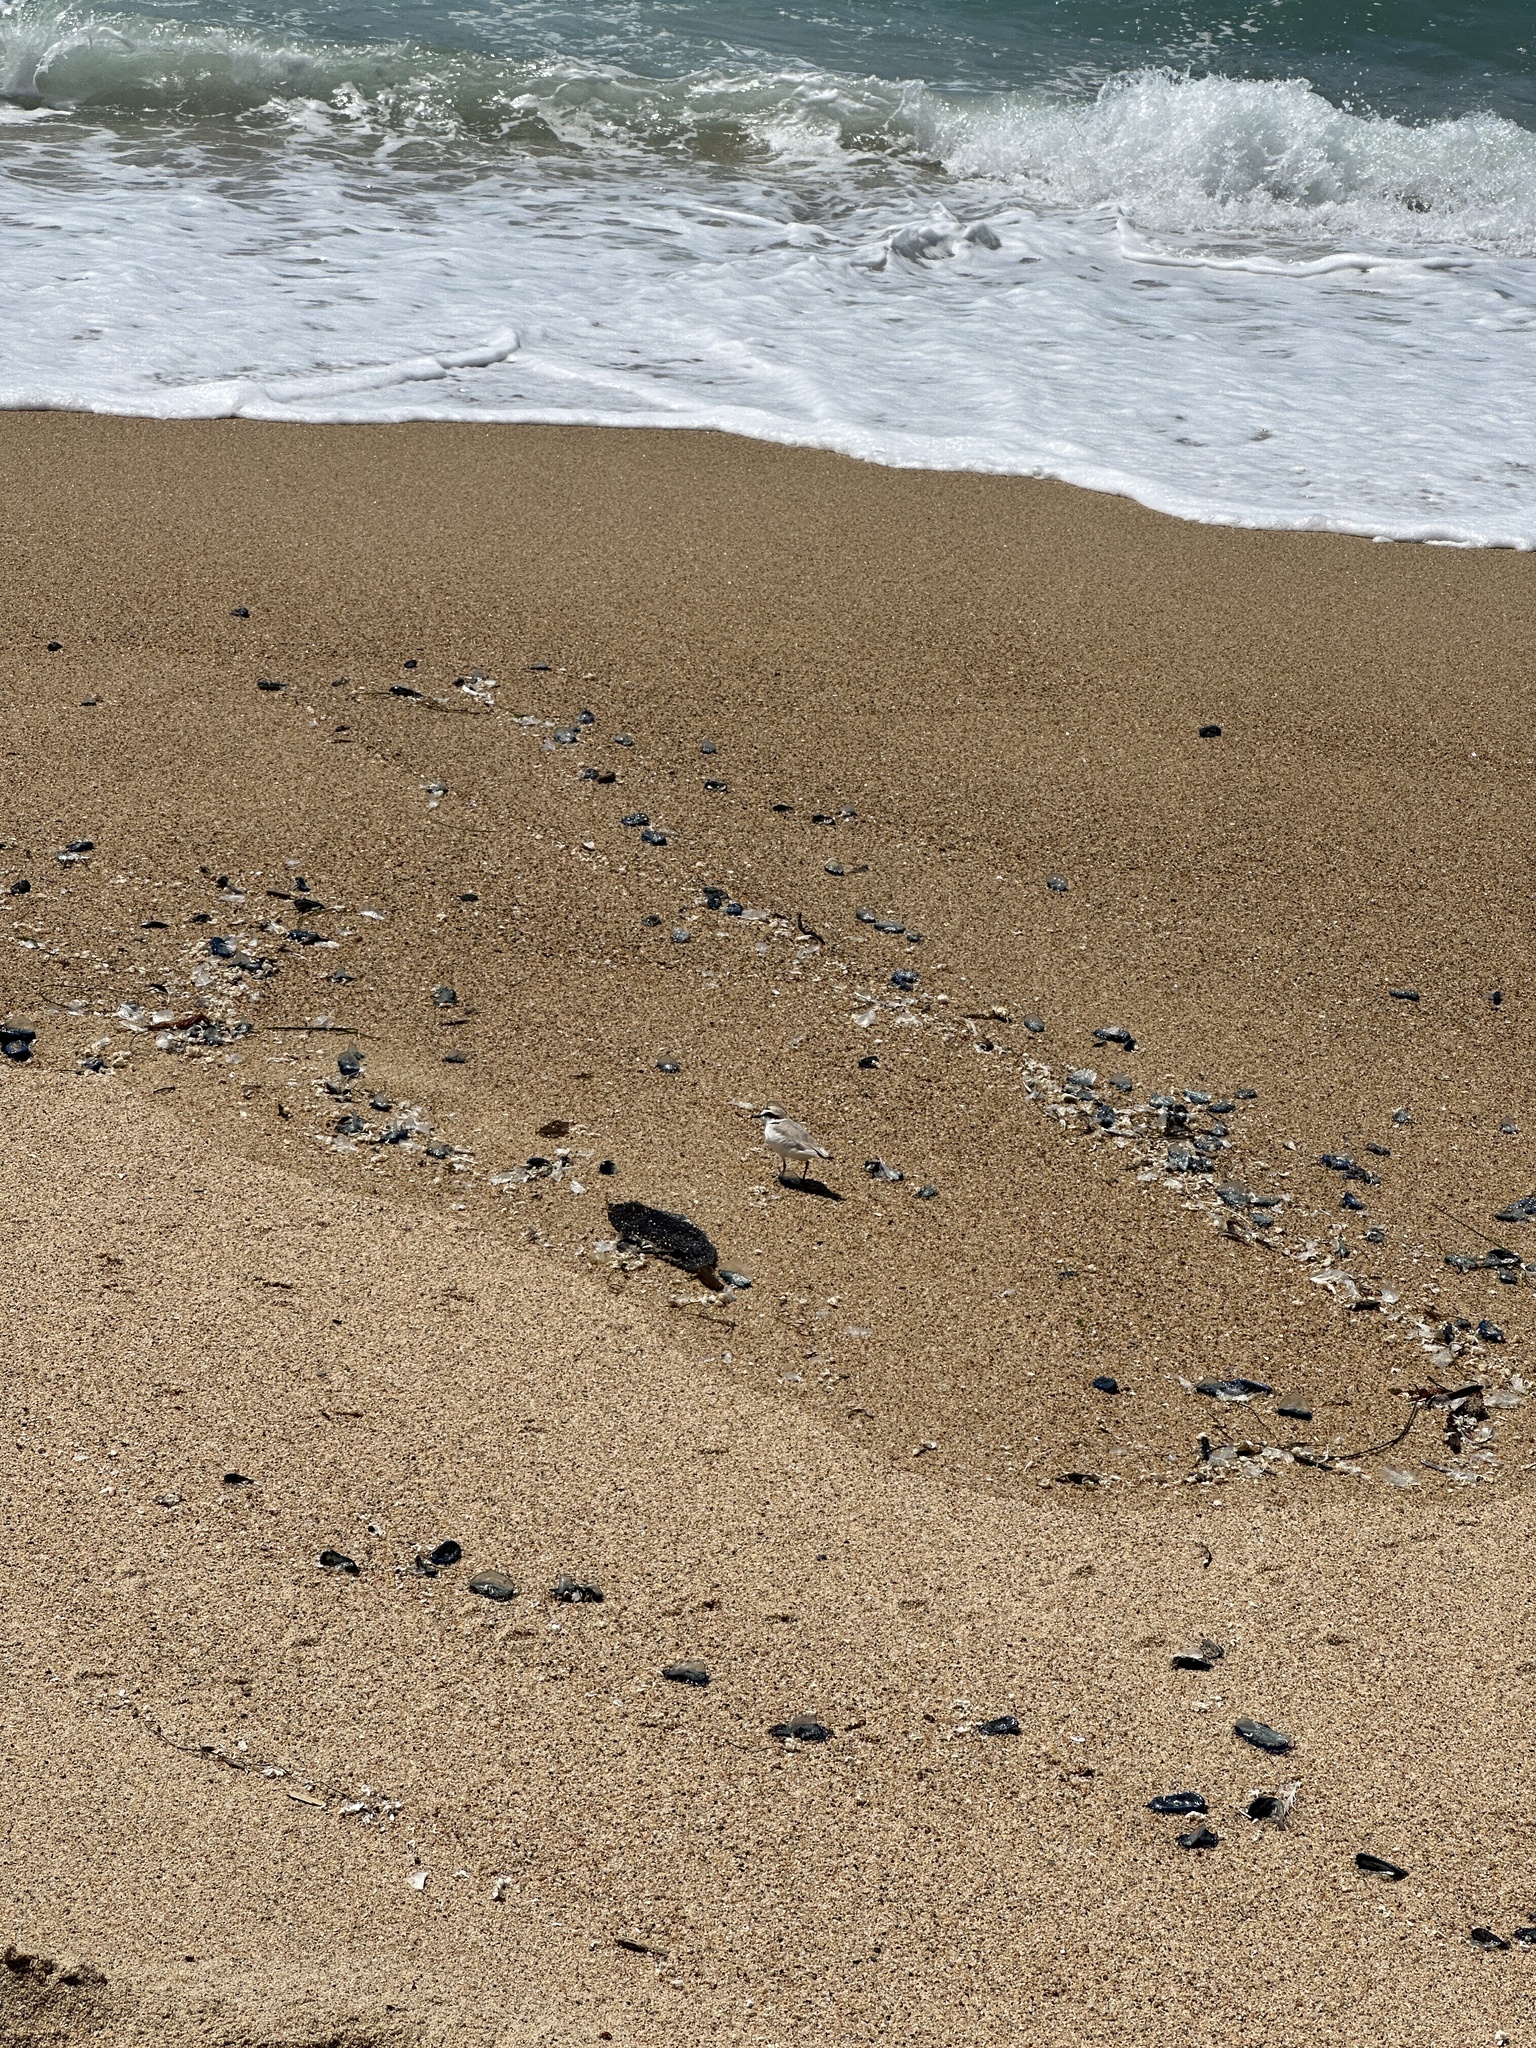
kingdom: Animalia
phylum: Chordata
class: Aves
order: Charadriiformes
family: Charadriidae
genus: Anarhynchus
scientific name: Anarhynchus
